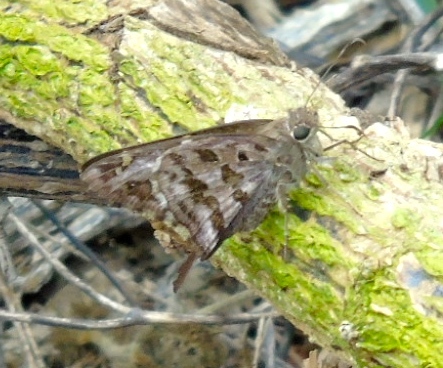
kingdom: Animalia
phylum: Arthropoda
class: Insecta
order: Lepidoptera
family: Hesperiidae
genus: Thorybes
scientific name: Thorybes
